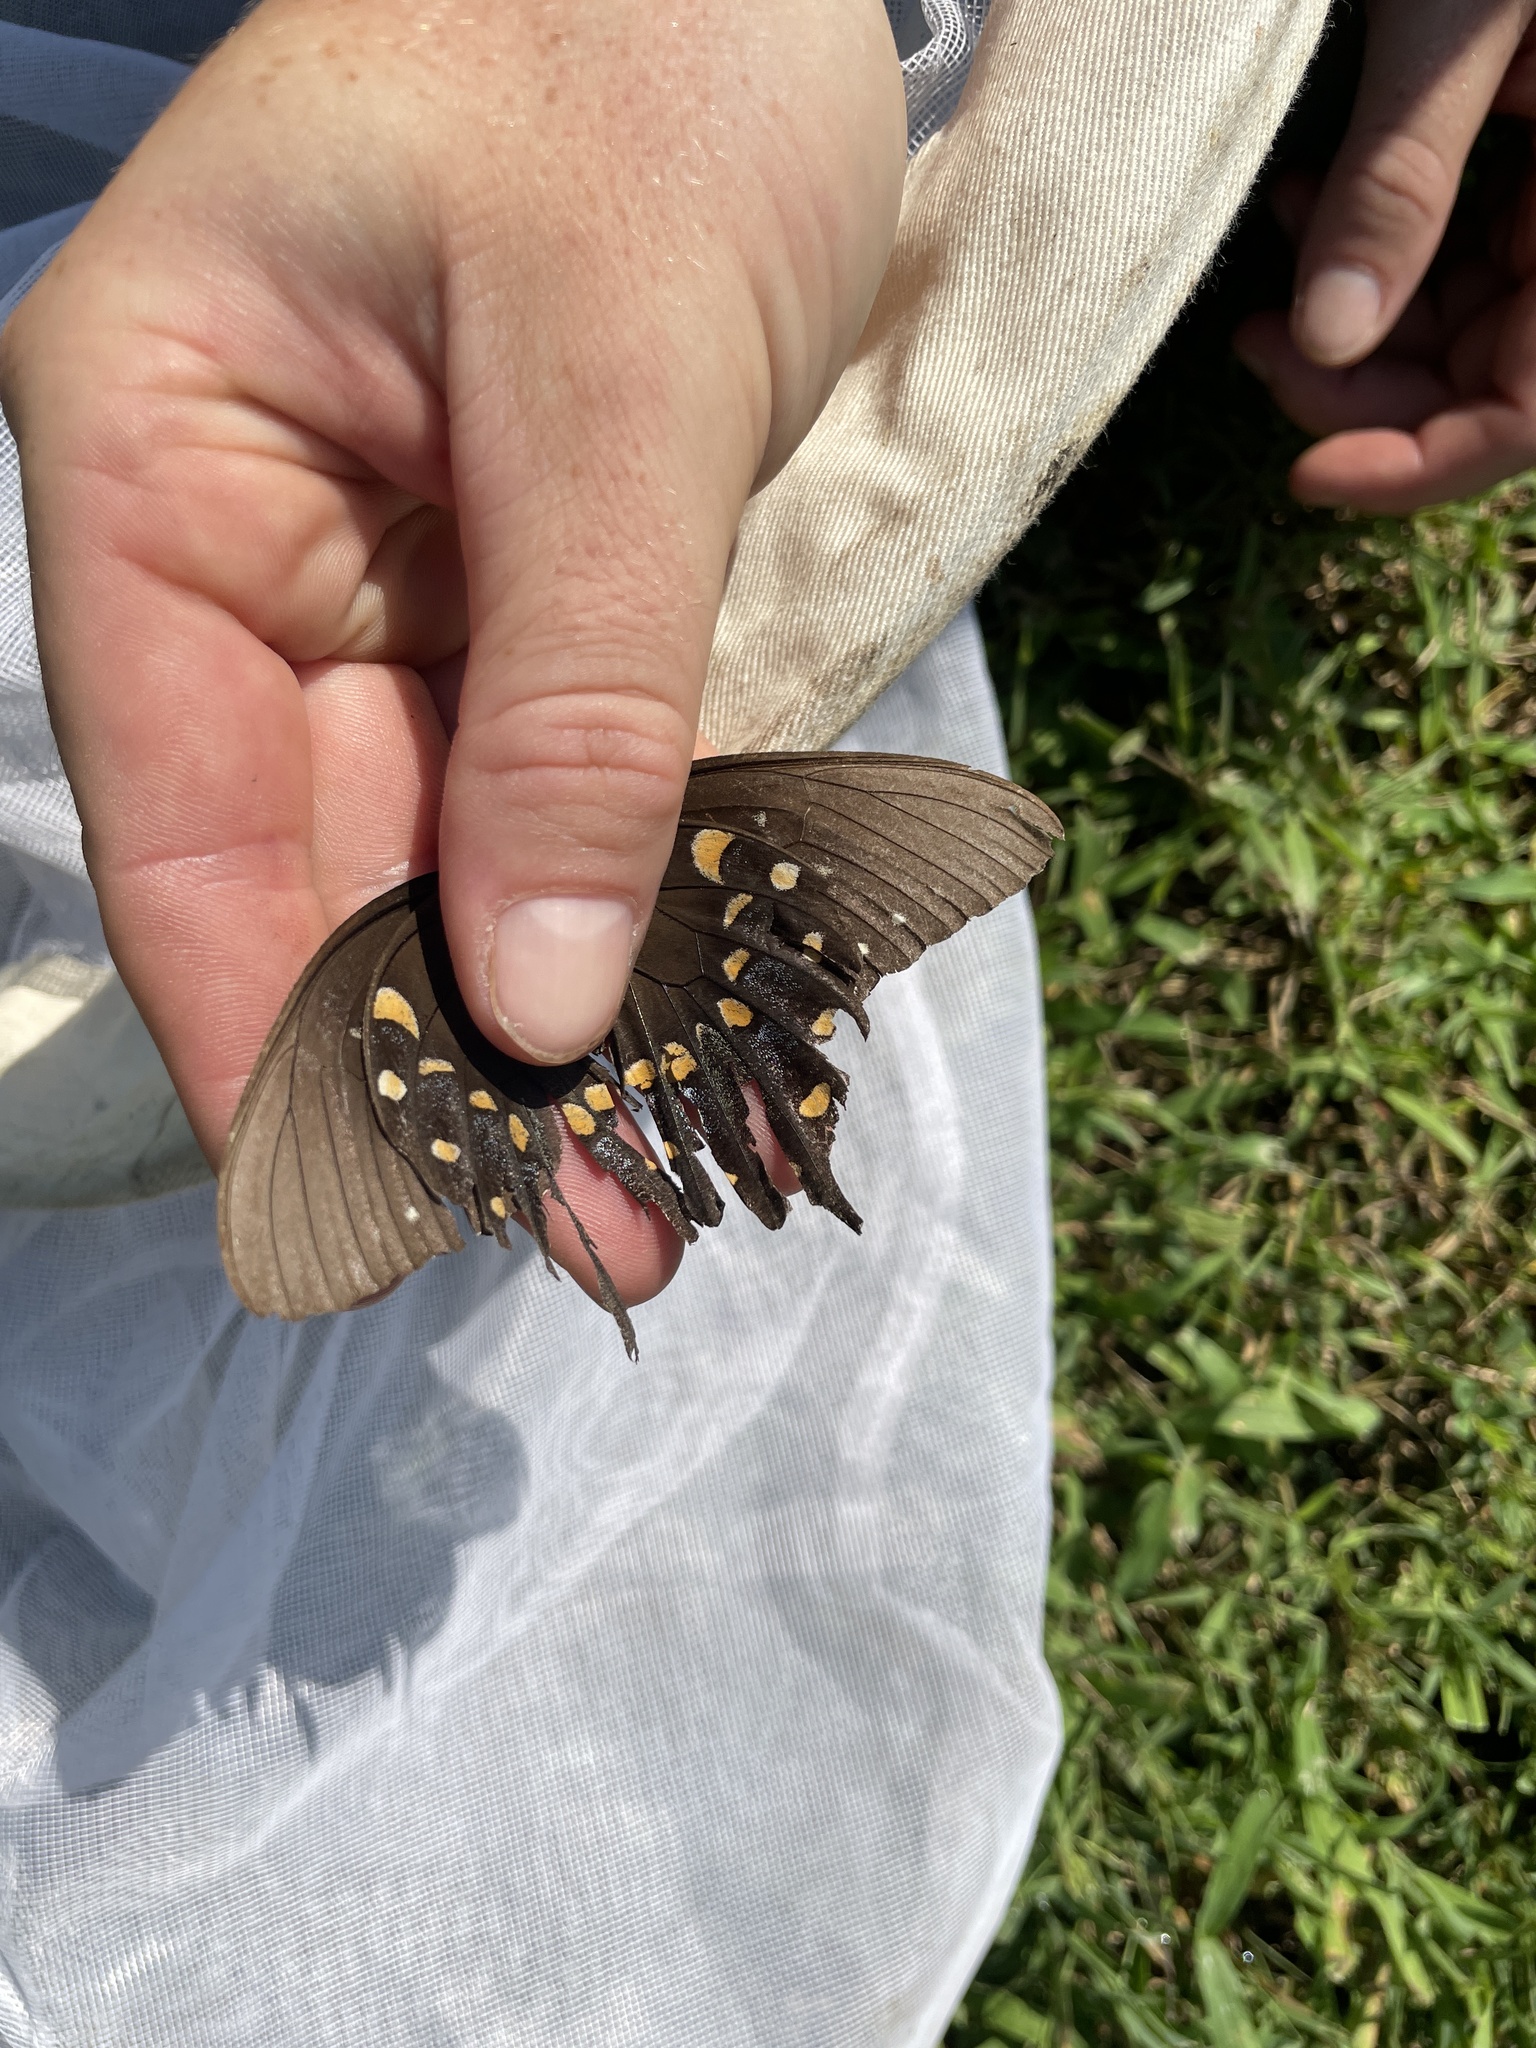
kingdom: Animalia
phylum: Arthropoda
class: Insecta
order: Lepidoptera
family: Papilionidae
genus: Papilio
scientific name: Papilio troilus
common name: Spicebush swallowtail
